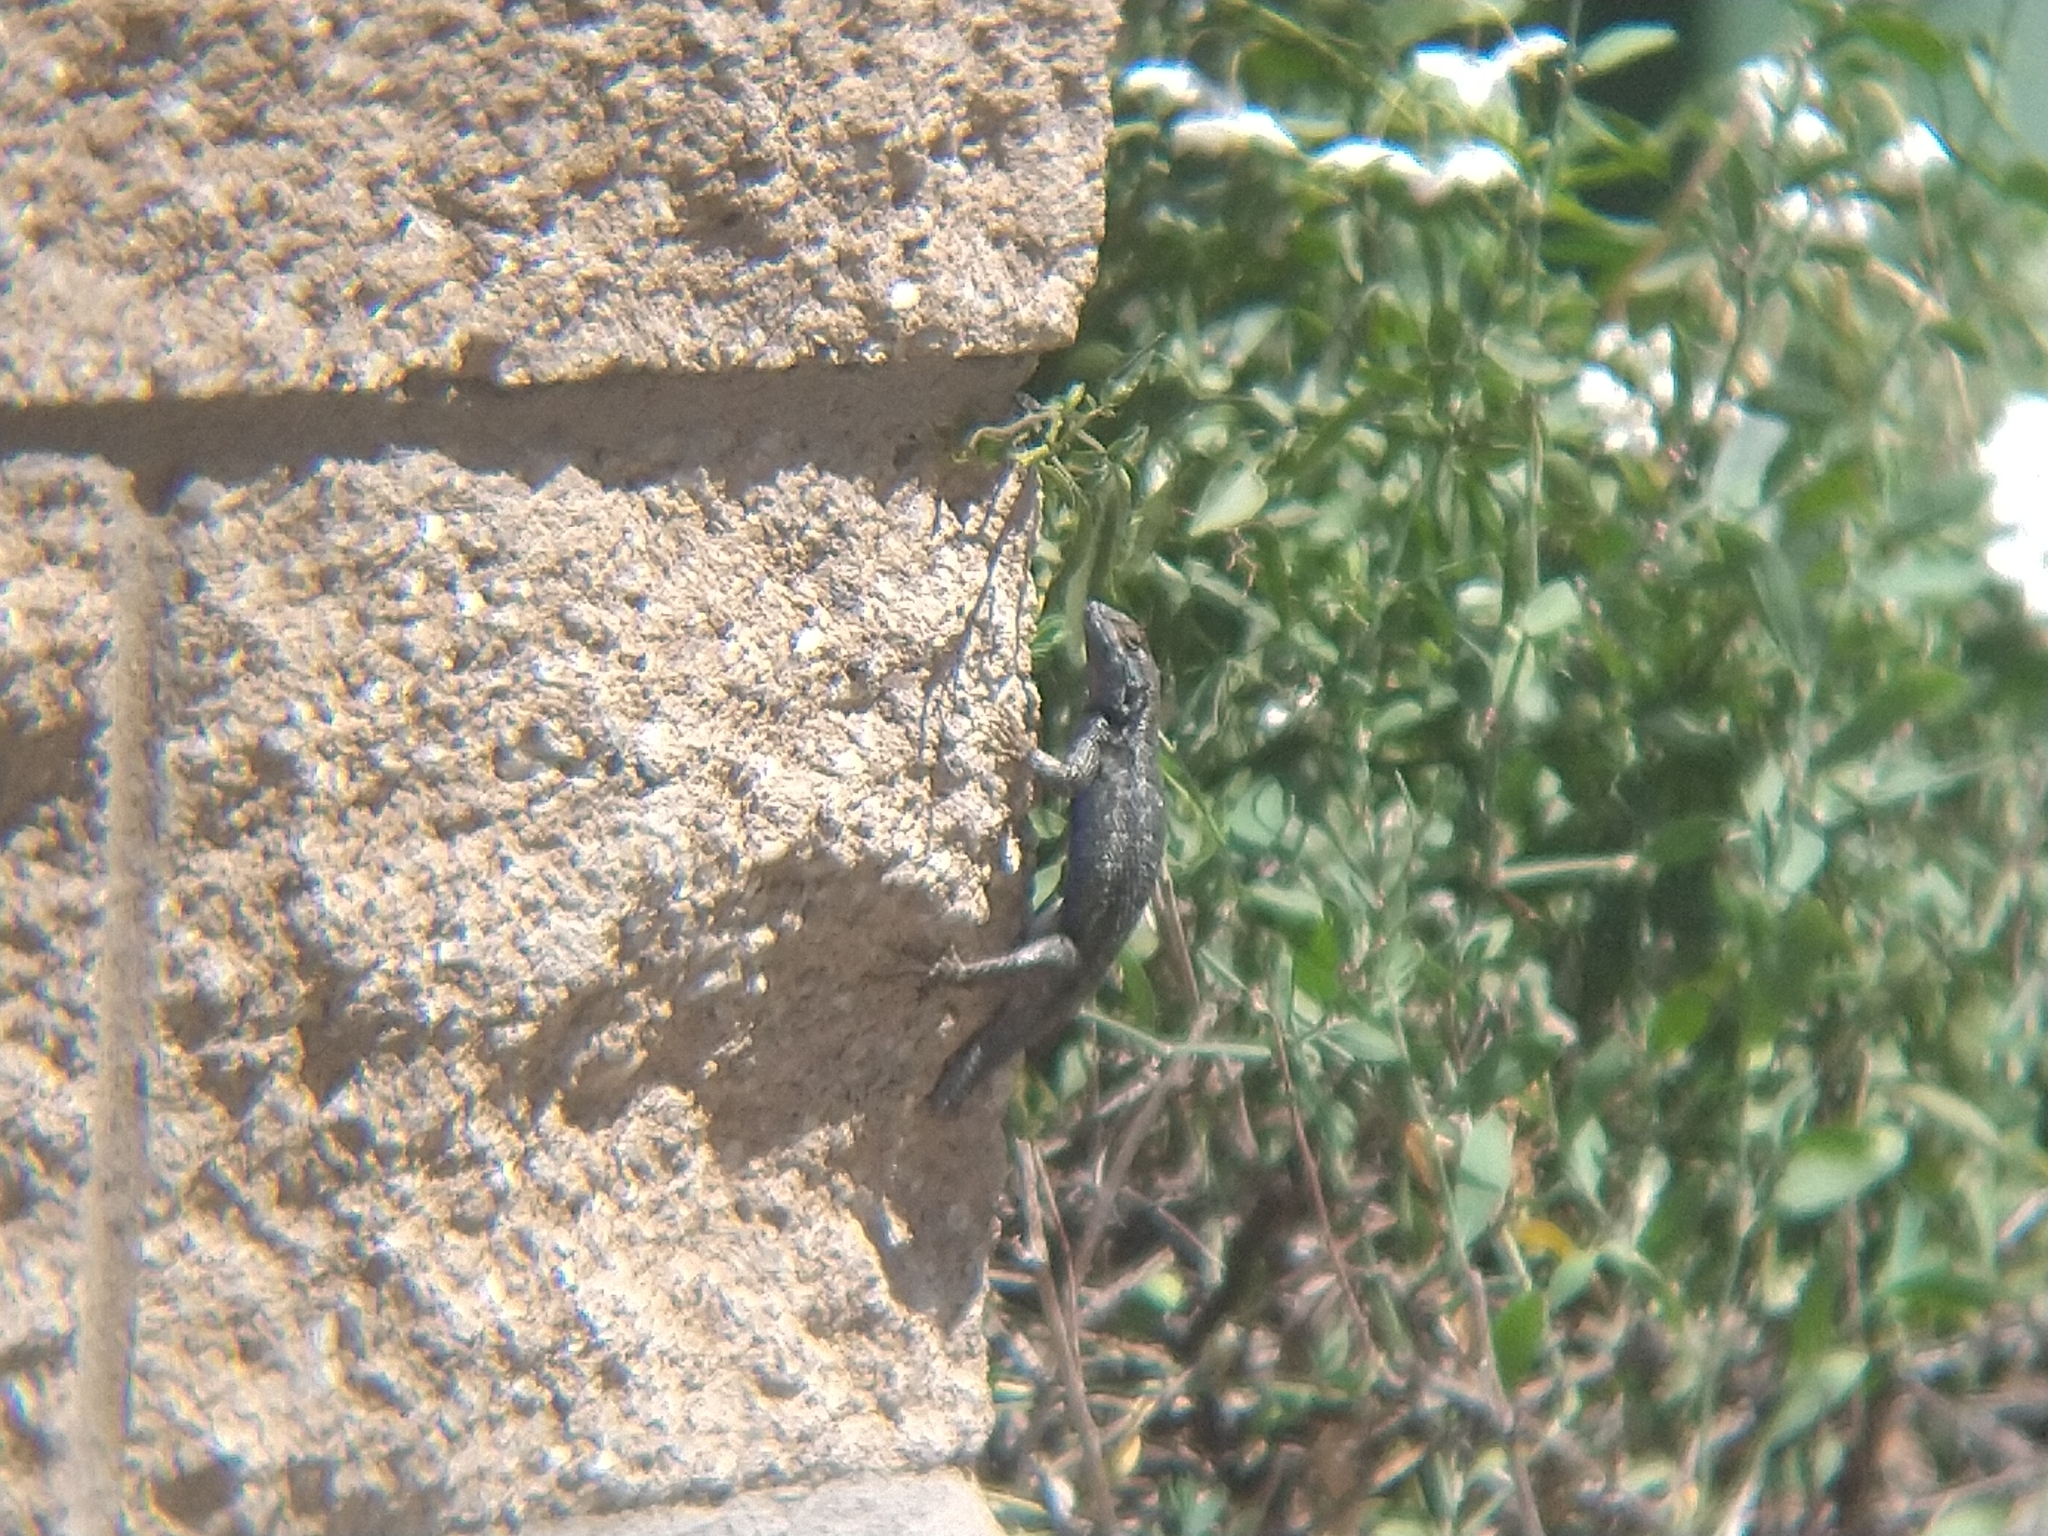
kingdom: Animalia
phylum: Chordata
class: Squamata
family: Phrynosomatidae
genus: Sceloporus
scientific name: Sceloporus occidentalis
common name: Western fence lizard
